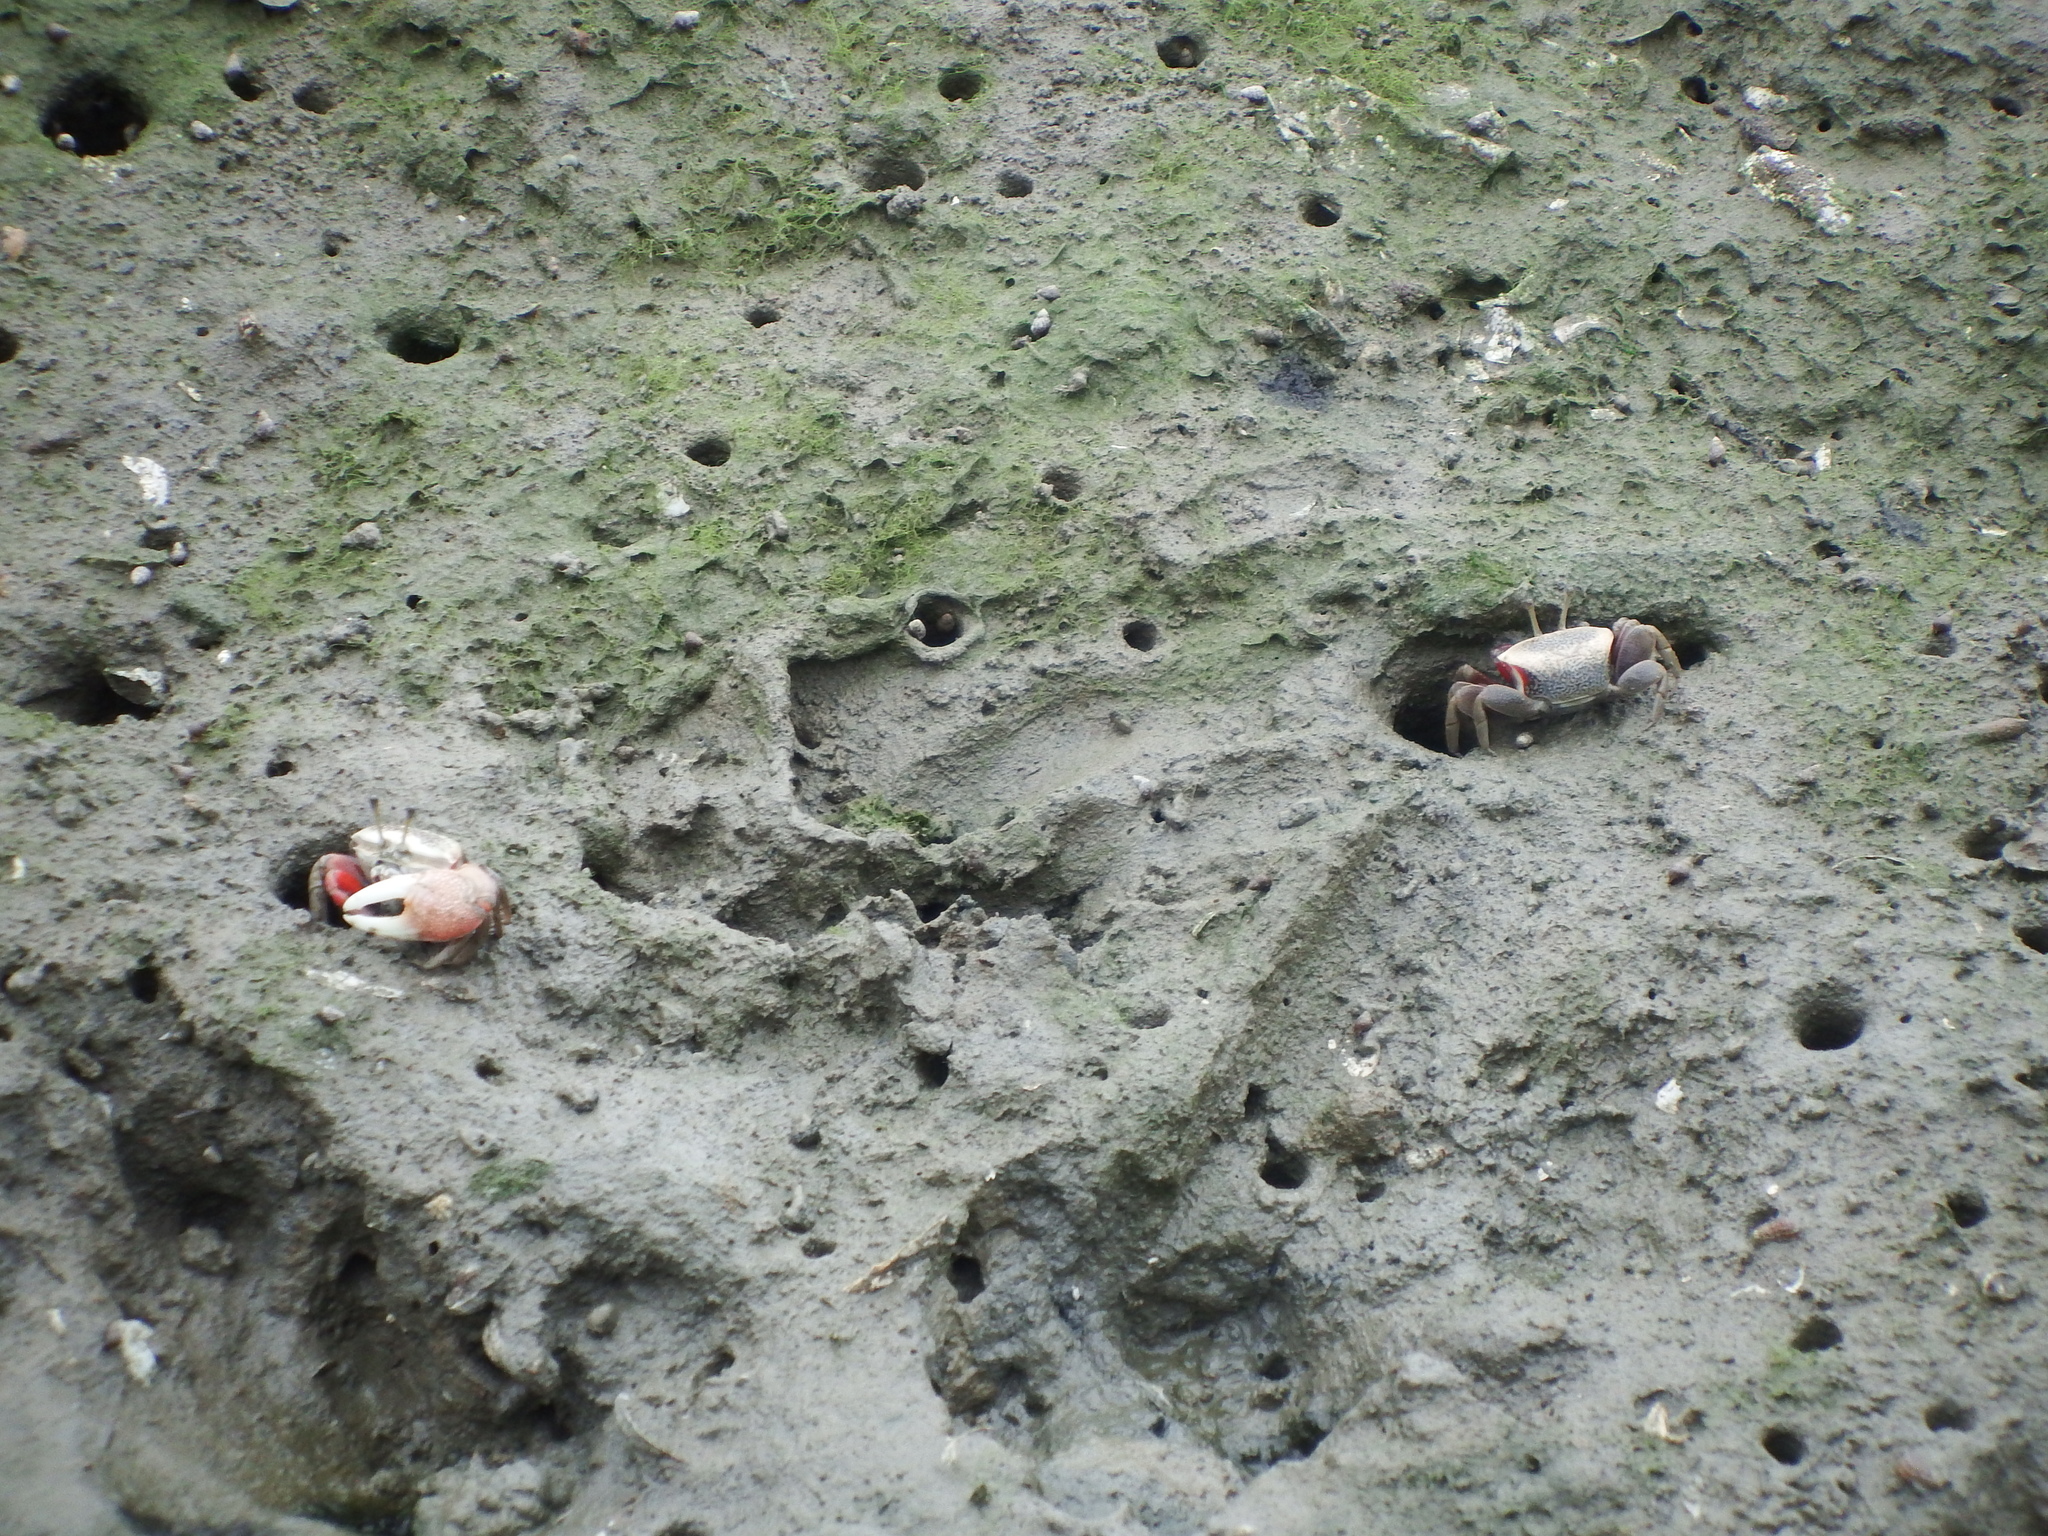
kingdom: Animalia
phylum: Arthropoda
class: Malacostraca
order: Decapoda
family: Ocypodidae
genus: Tubuca
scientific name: Tubuca arcuata
